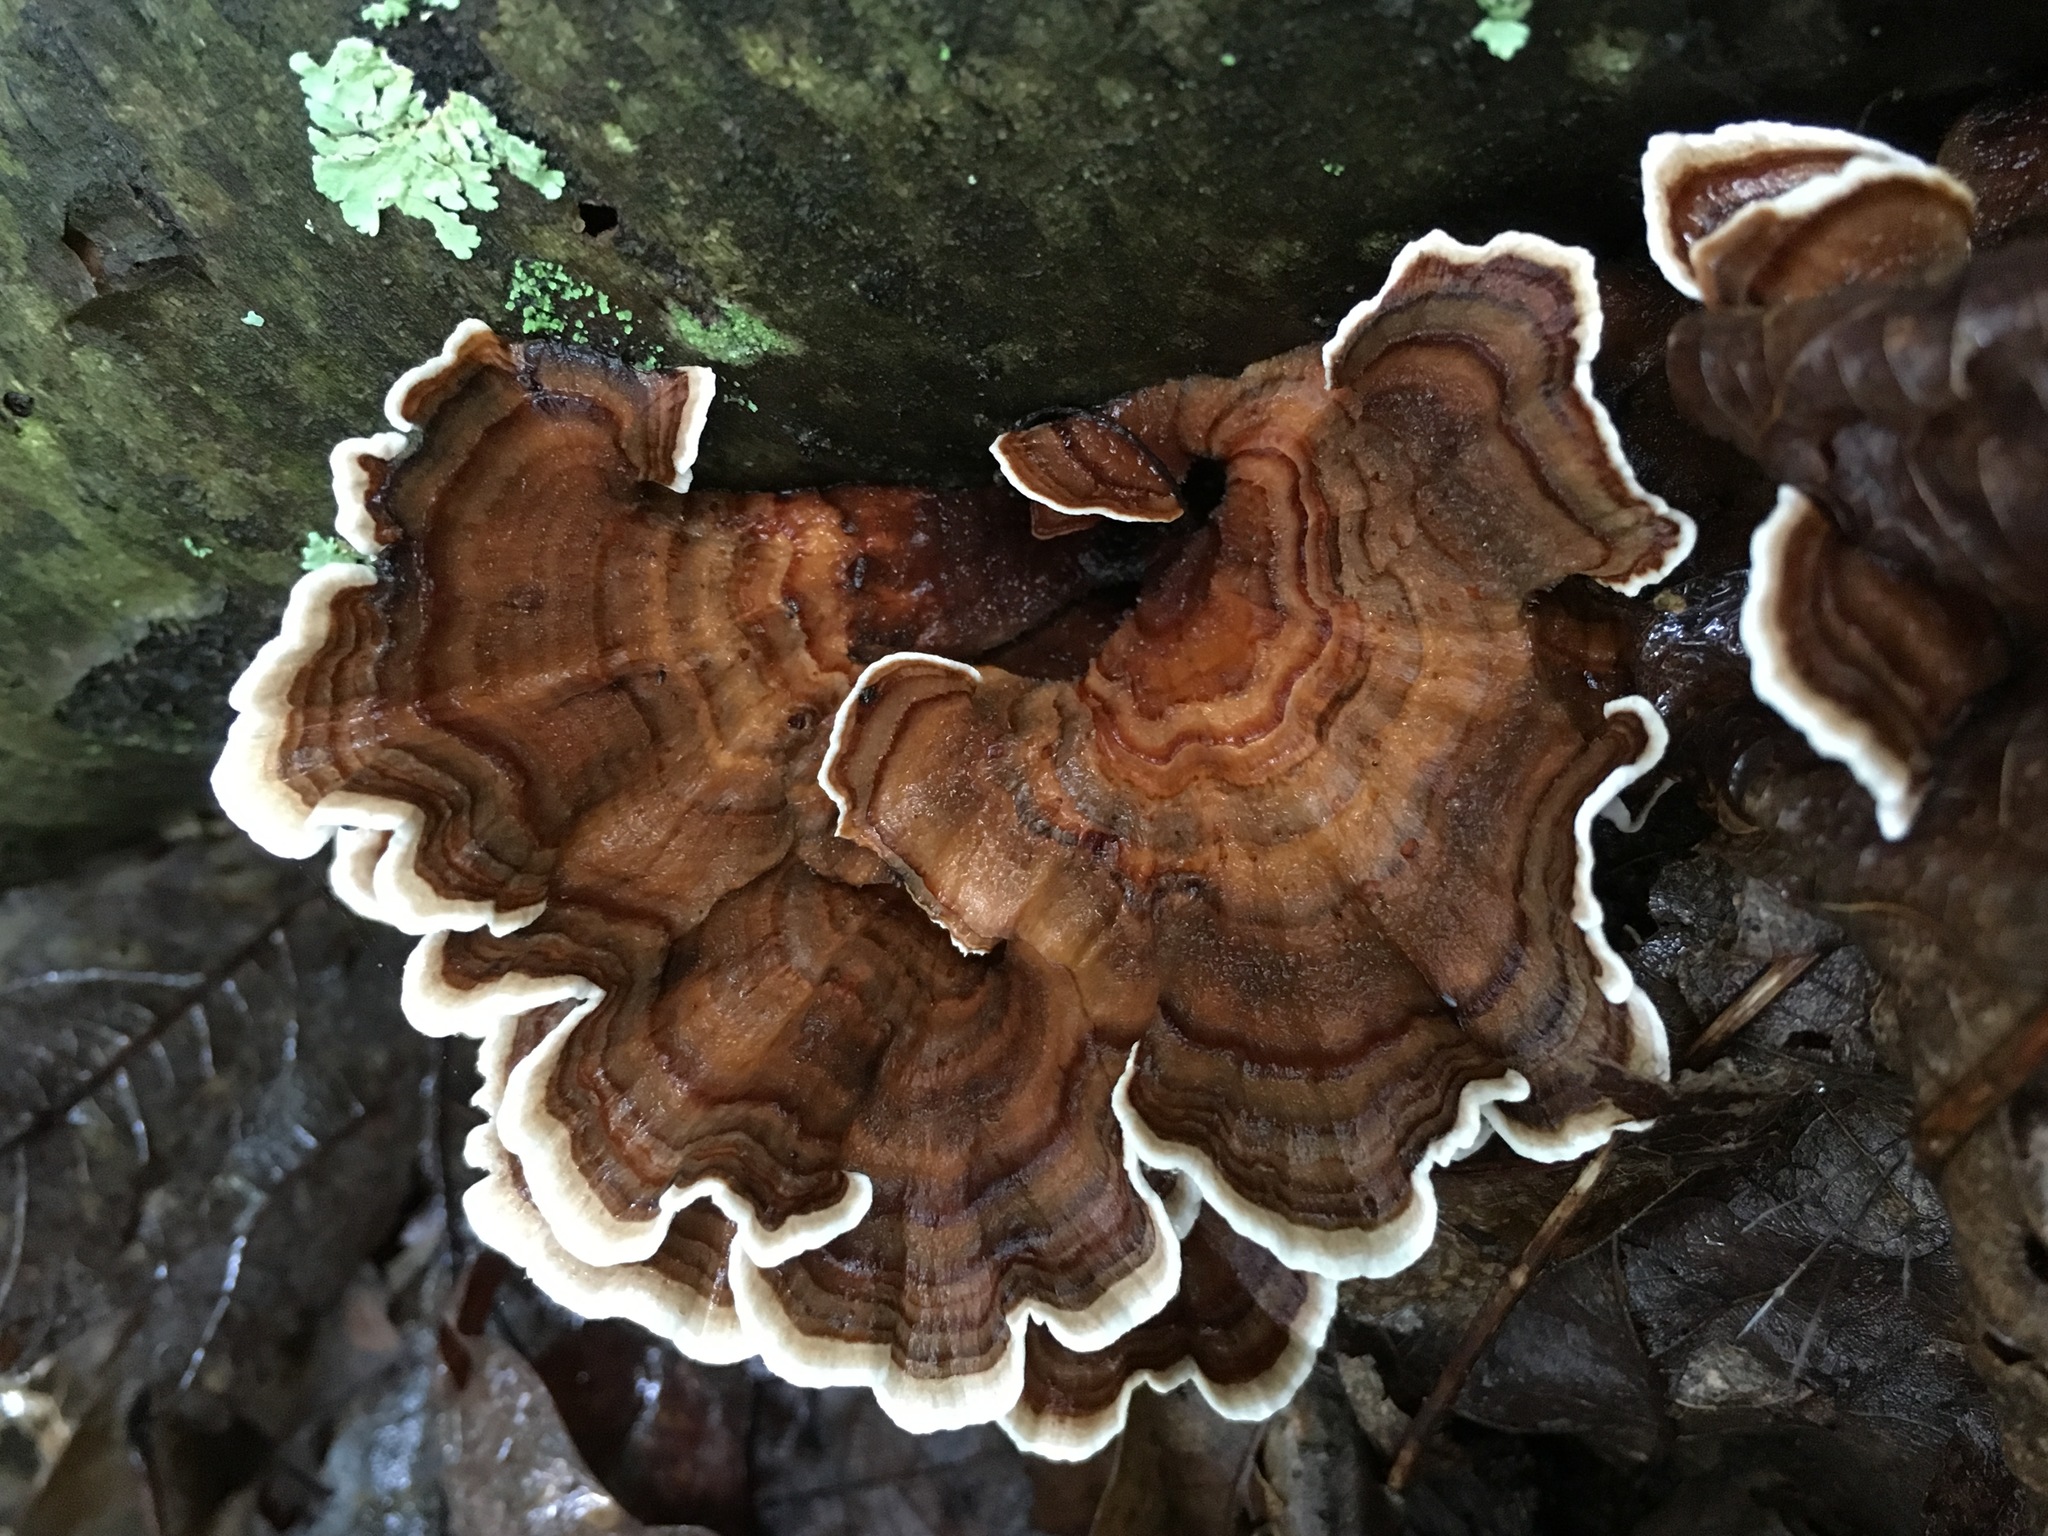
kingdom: Fungi
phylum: Basidiomycota
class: Agaricomycetes
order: Polyporales
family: Polyporaceae
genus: Trametes
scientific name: Trametes versicolor
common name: Turkeytail
